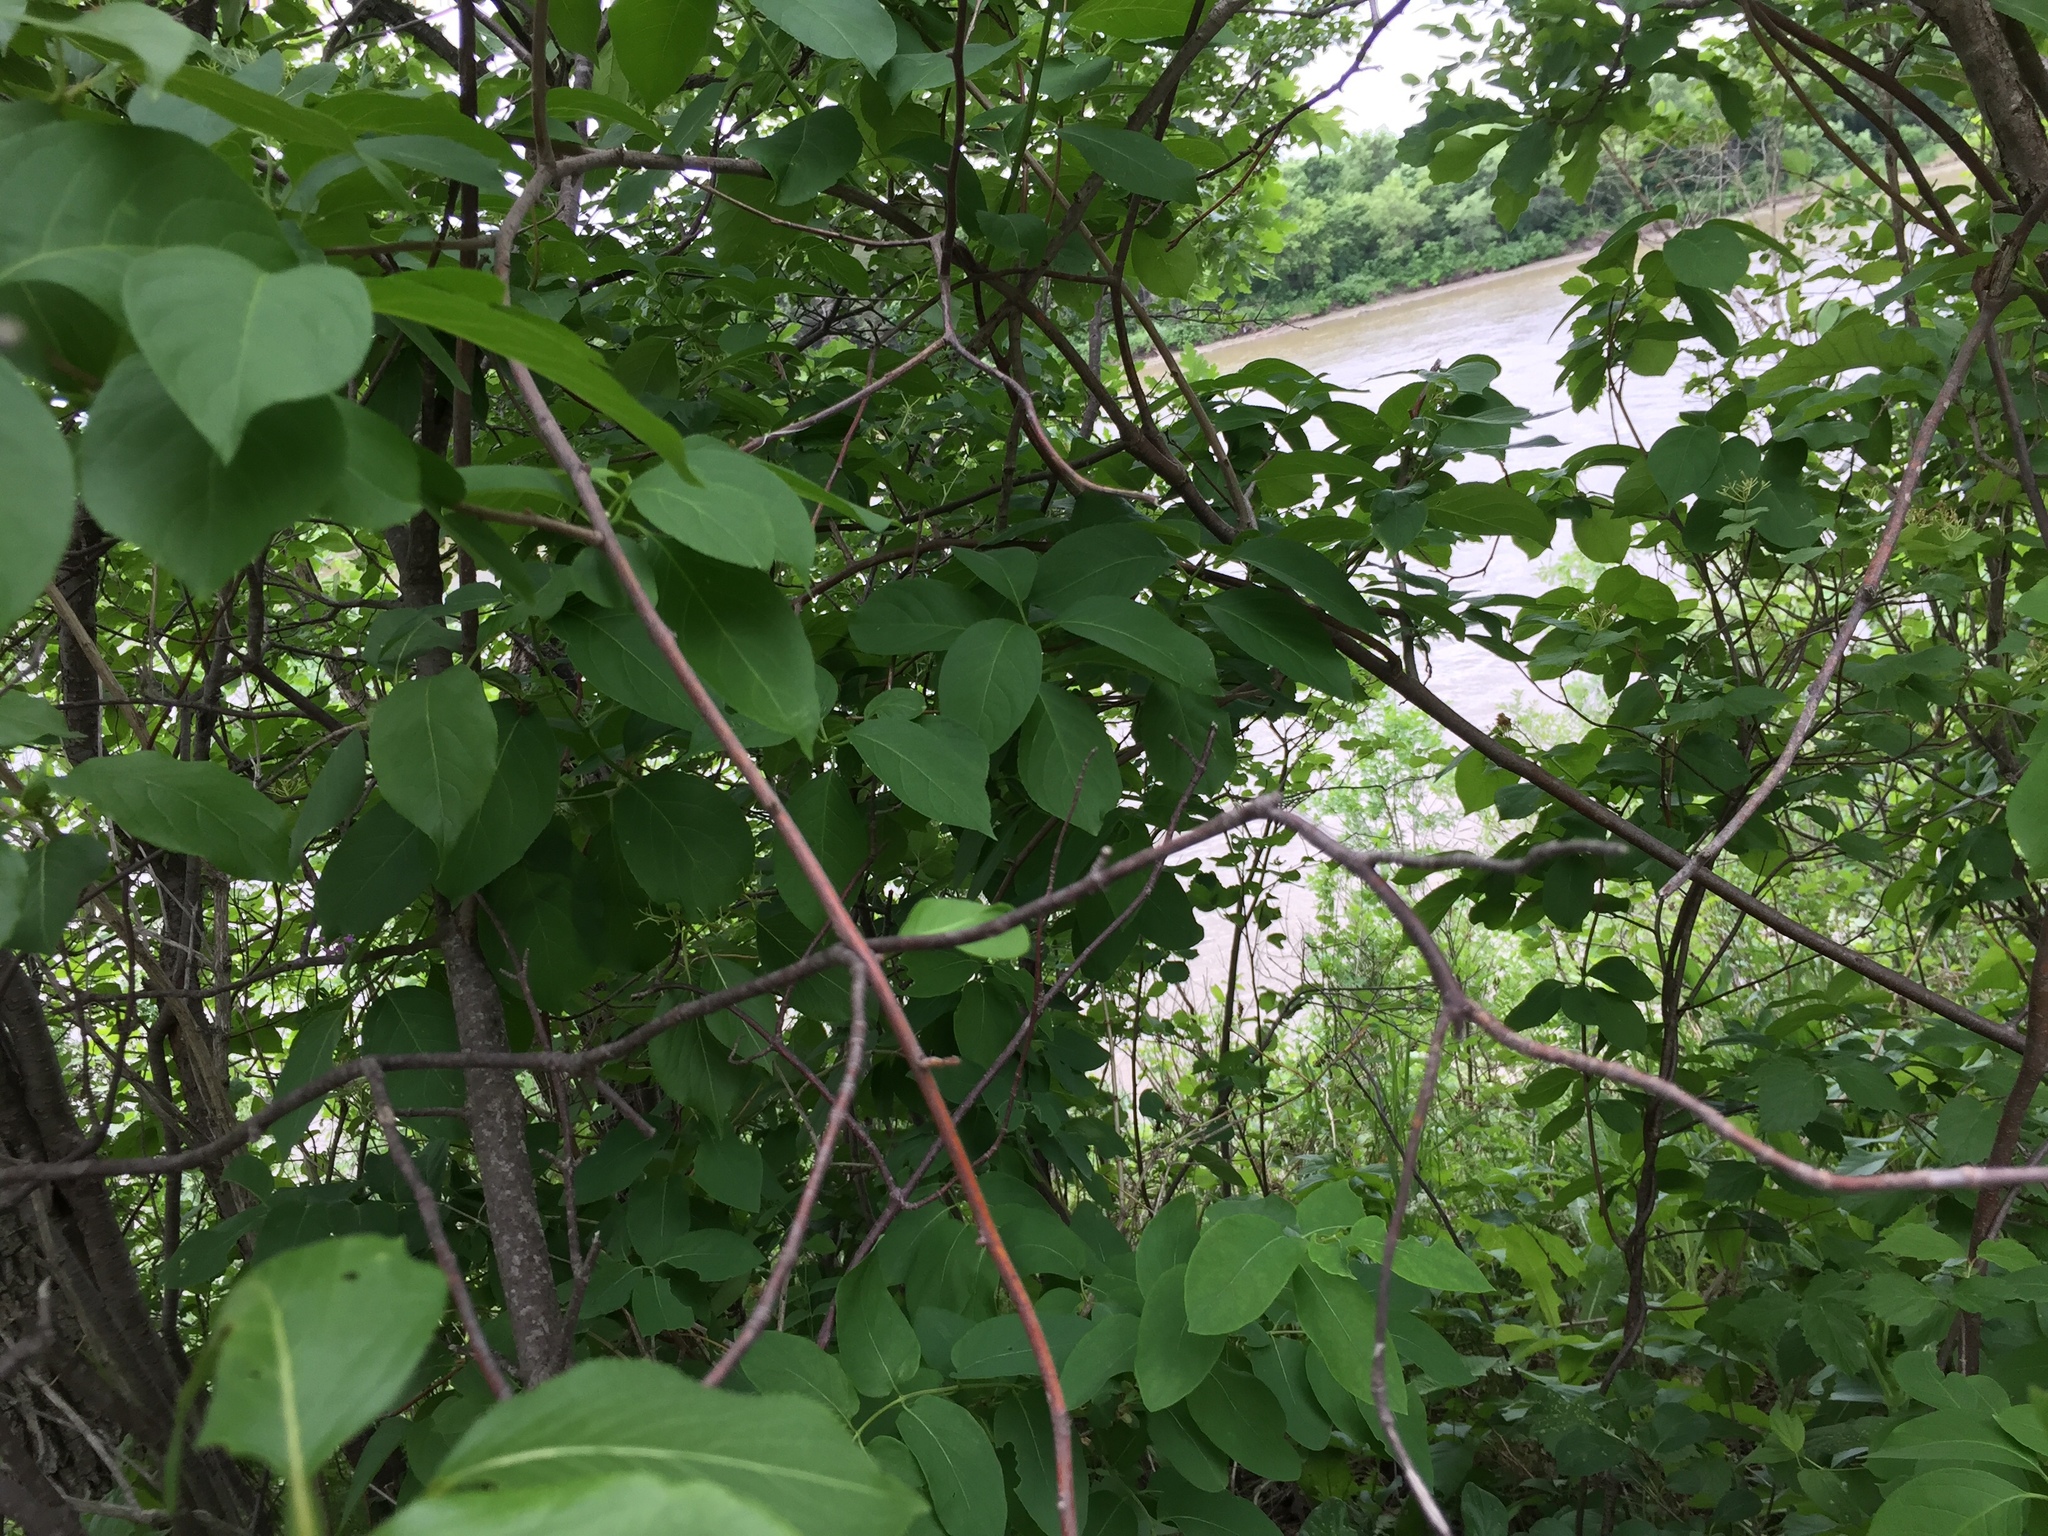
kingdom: Plantae
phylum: Tracheophyta
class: Magnoliopsida
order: Celastrales
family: Celastraceae
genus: Celastrus
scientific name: Celastrus scandens
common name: American bittersweet
